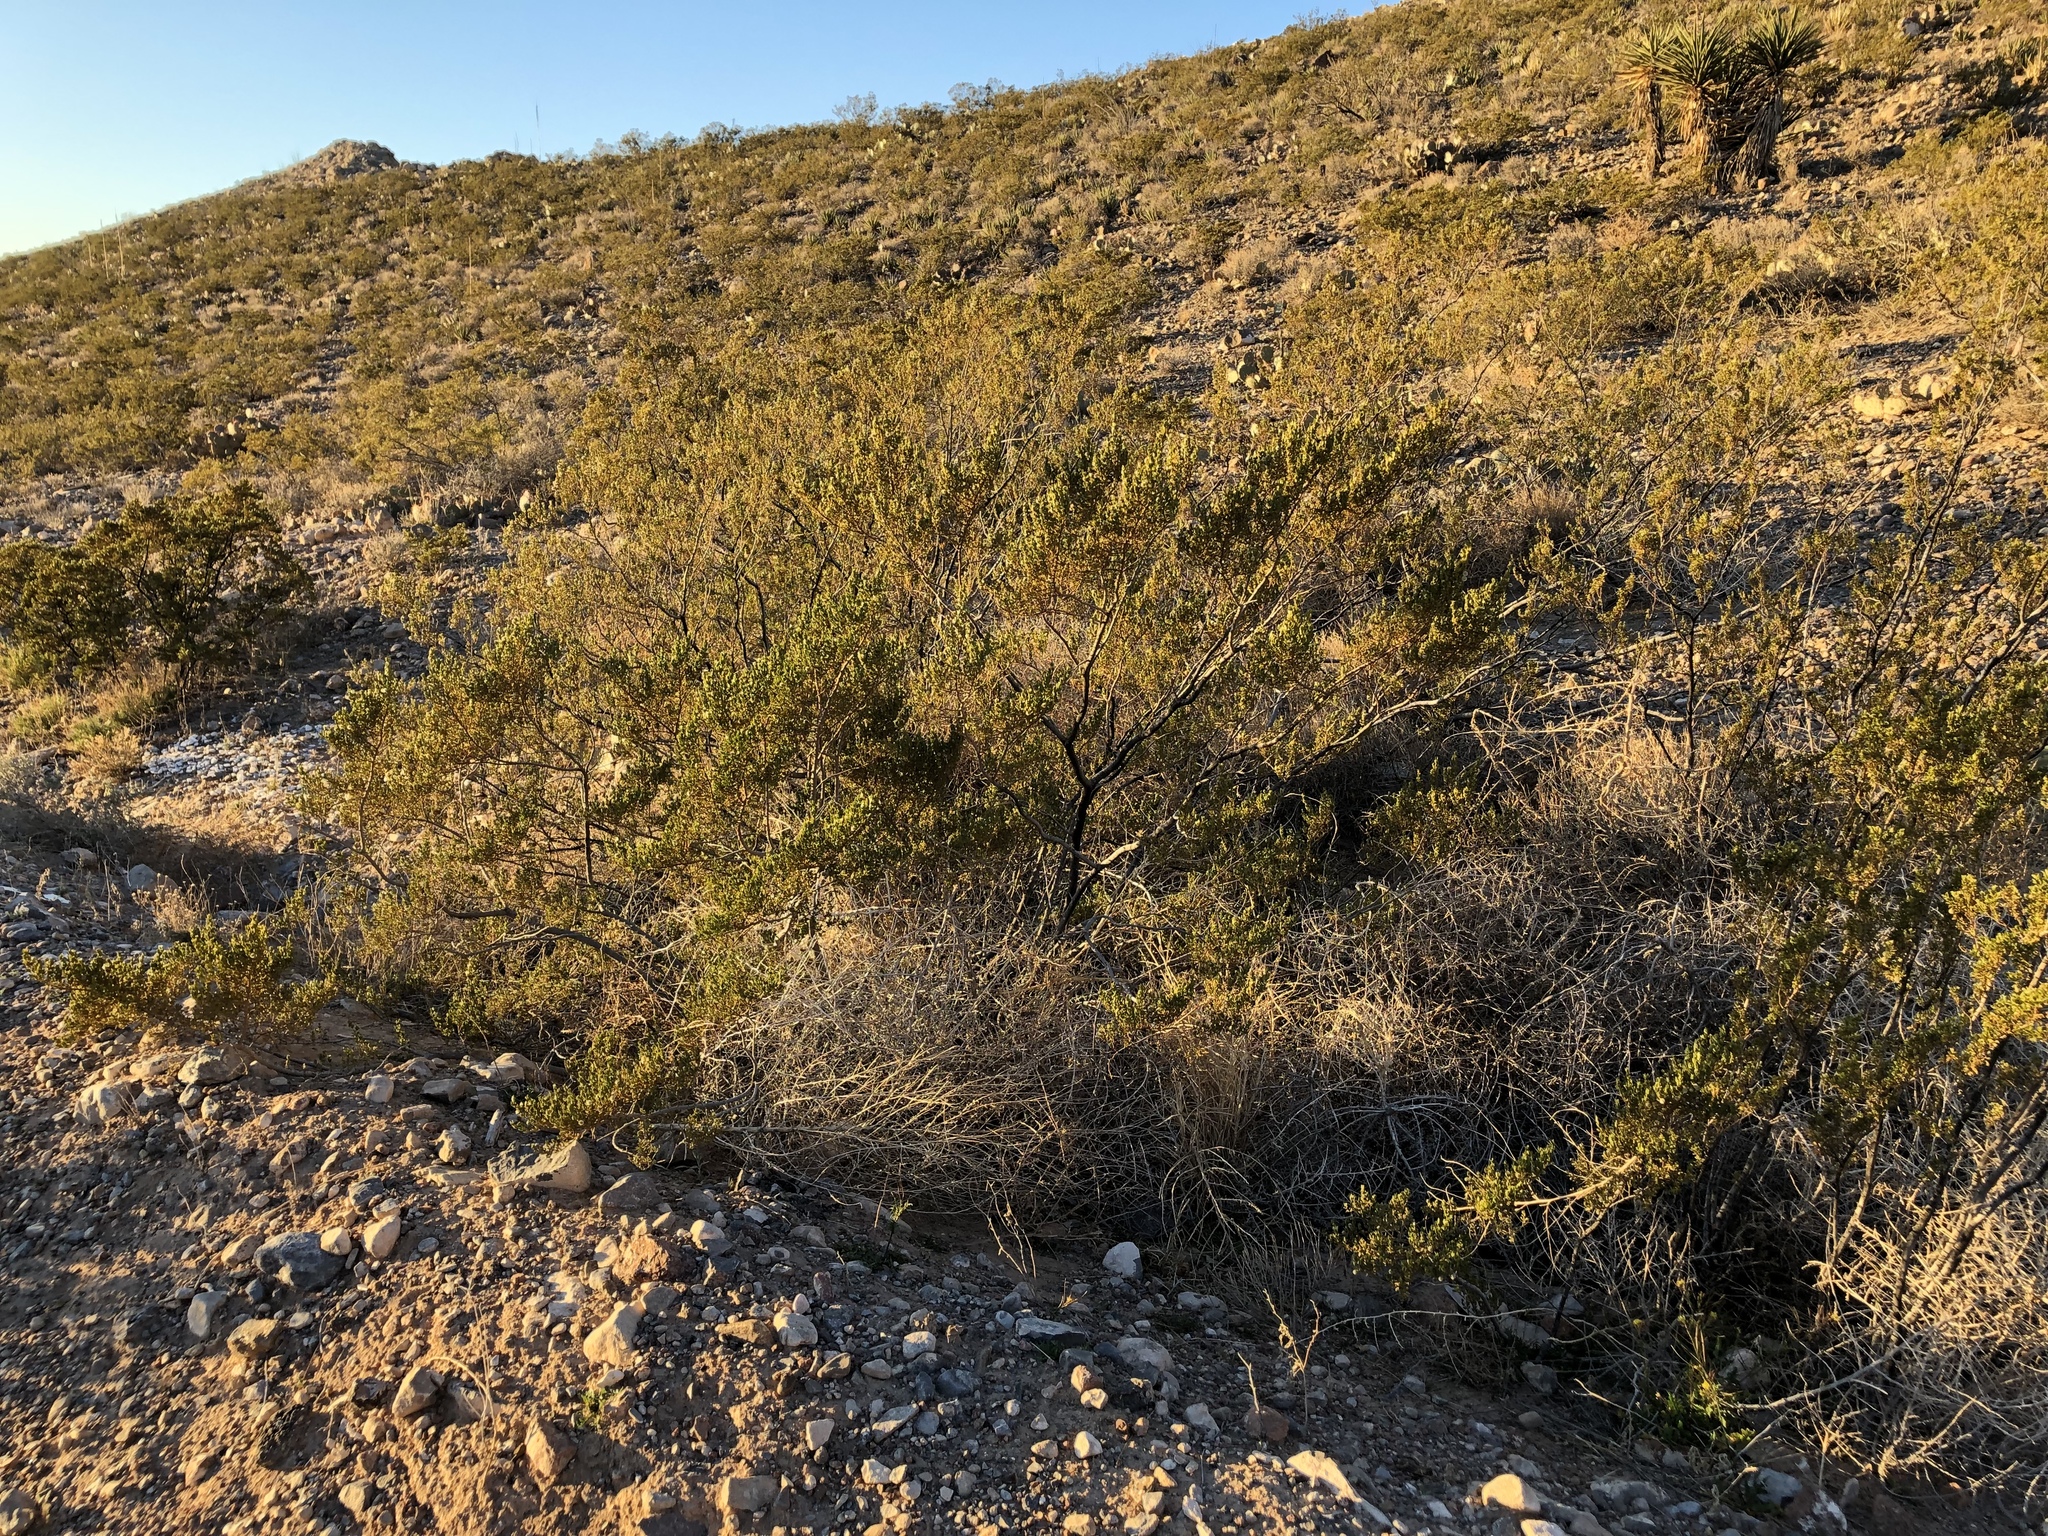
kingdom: Plantae
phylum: Tracheophyta
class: Magnoliopsida
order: Zygophyllales
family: Zygophyllaceae
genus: Larrea
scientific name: Larrea tridentata
